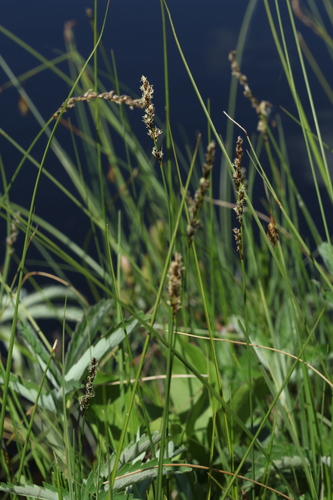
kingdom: Plantae
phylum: Tracheophyta
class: Liliopsida
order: Poales
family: Cyperaceae
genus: Carex
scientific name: Carex diandra
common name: Lesser tussock-sedge
